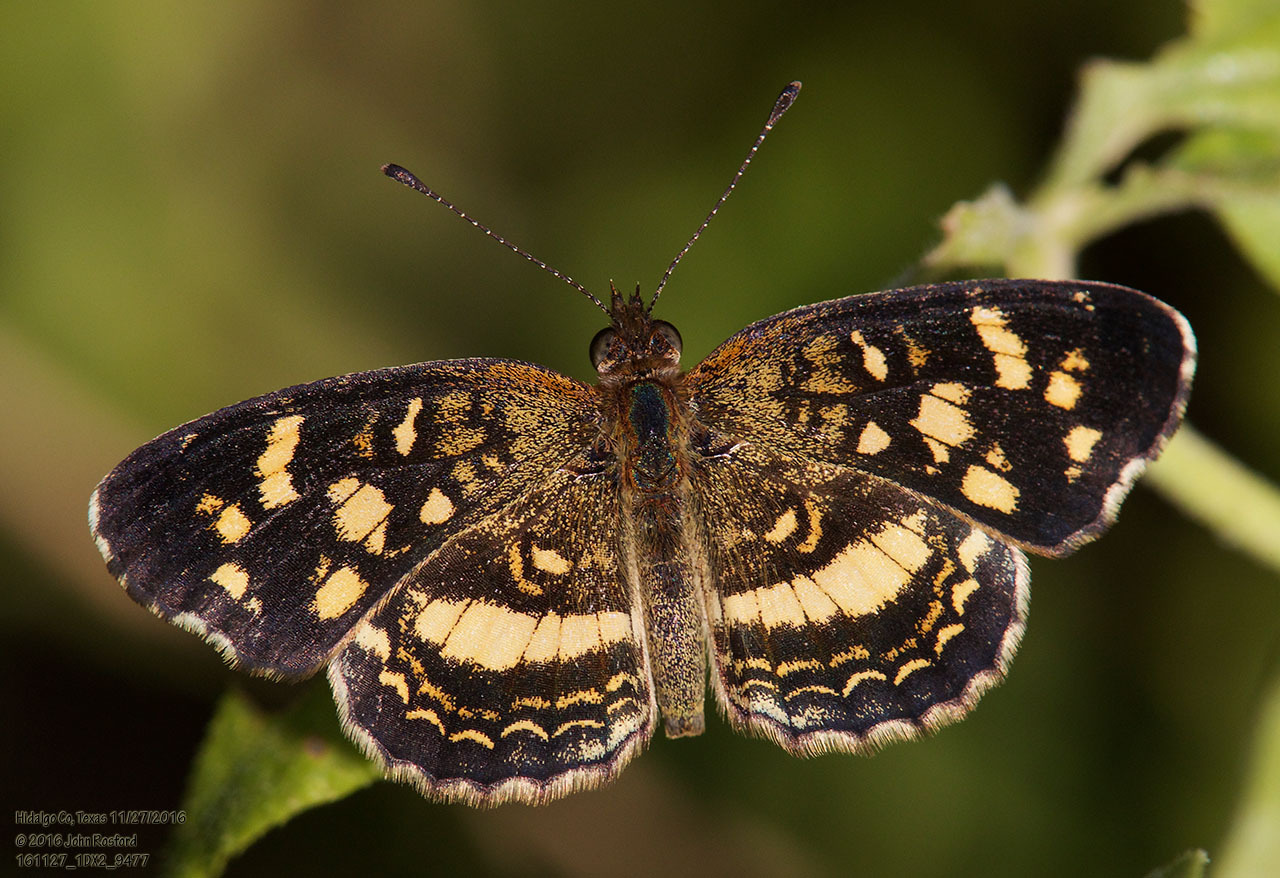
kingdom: Animalia
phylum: Arthropoda
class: Insecta
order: Lepidoptera
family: Nymphalidae
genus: Anthanassa
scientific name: Anthanassa tulcis
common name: Pale-banded crescent
